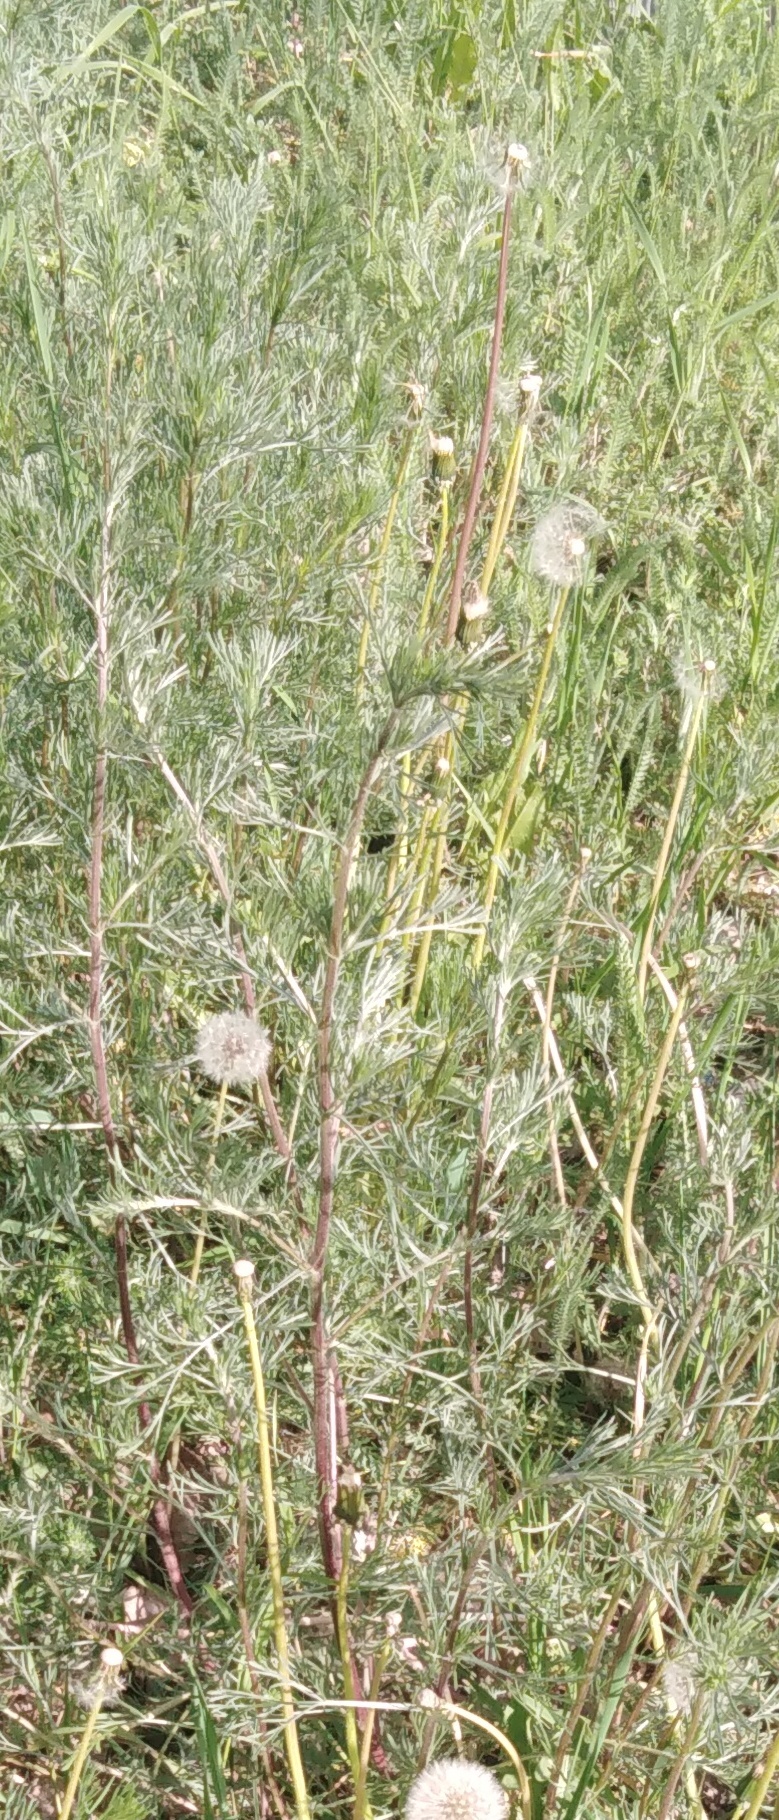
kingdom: Plantae
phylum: Tracheophyta
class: Magnoliopsida
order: Asterales
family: Asteraceae
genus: Artemisia
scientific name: Artemisia campestris
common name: Field wormwood
